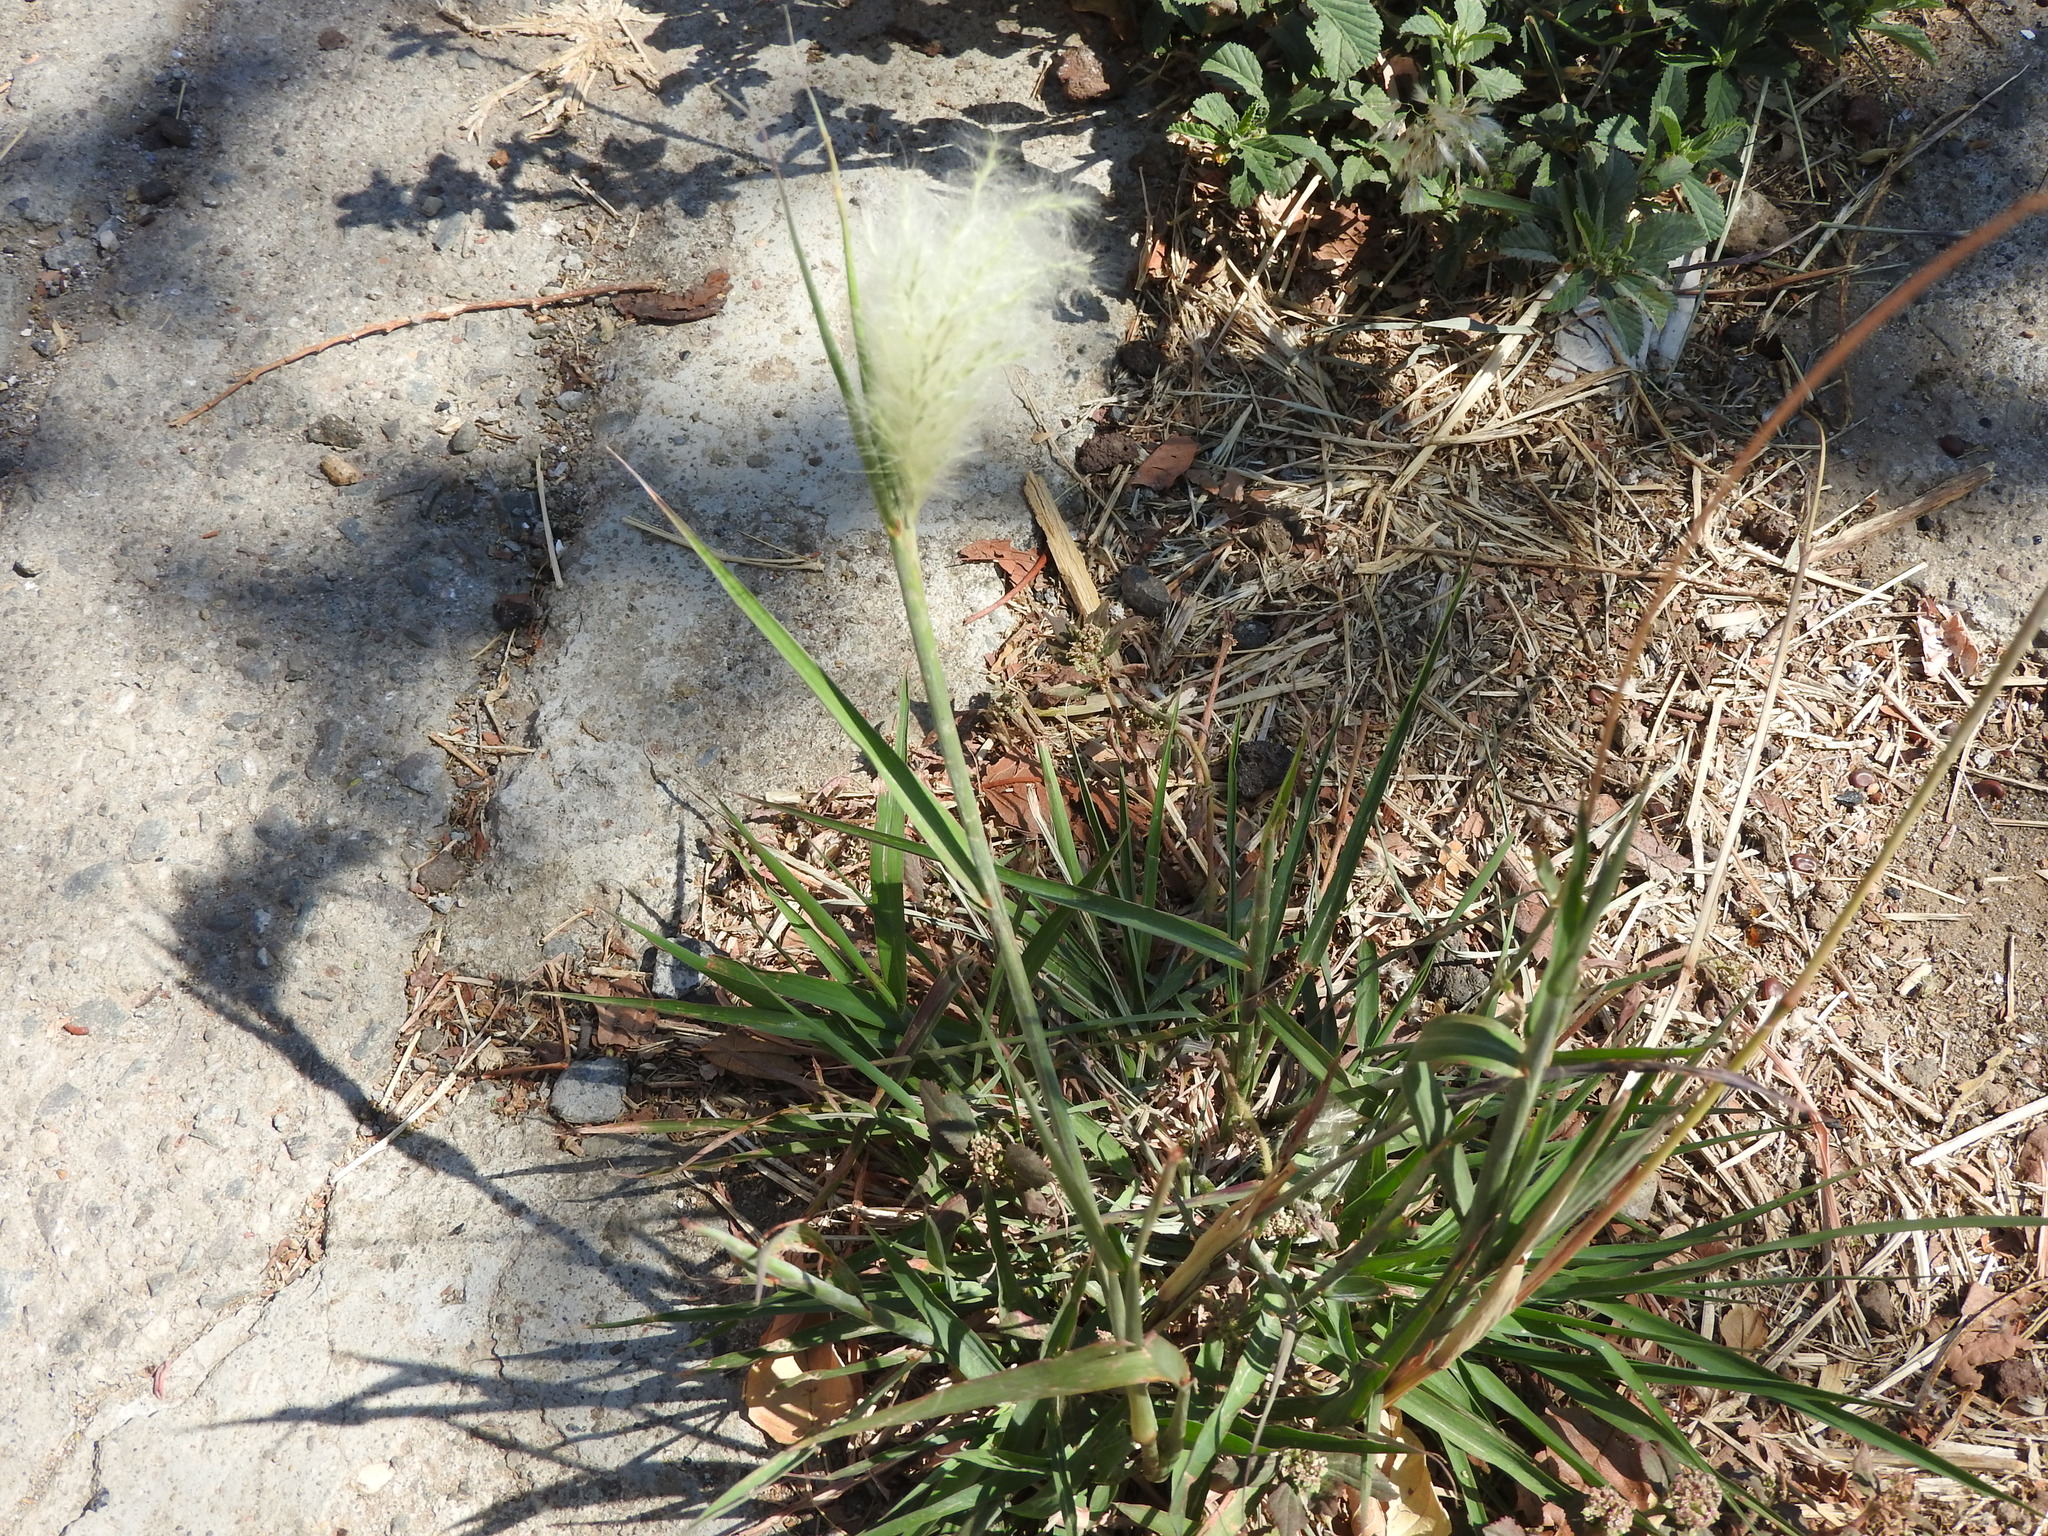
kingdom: Plantae
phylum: Tracheophyta
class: Liliopsida
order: Poales
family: Poaceae
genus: Cenchrus
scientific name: Cenchrus longisetus
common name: Feathertop
